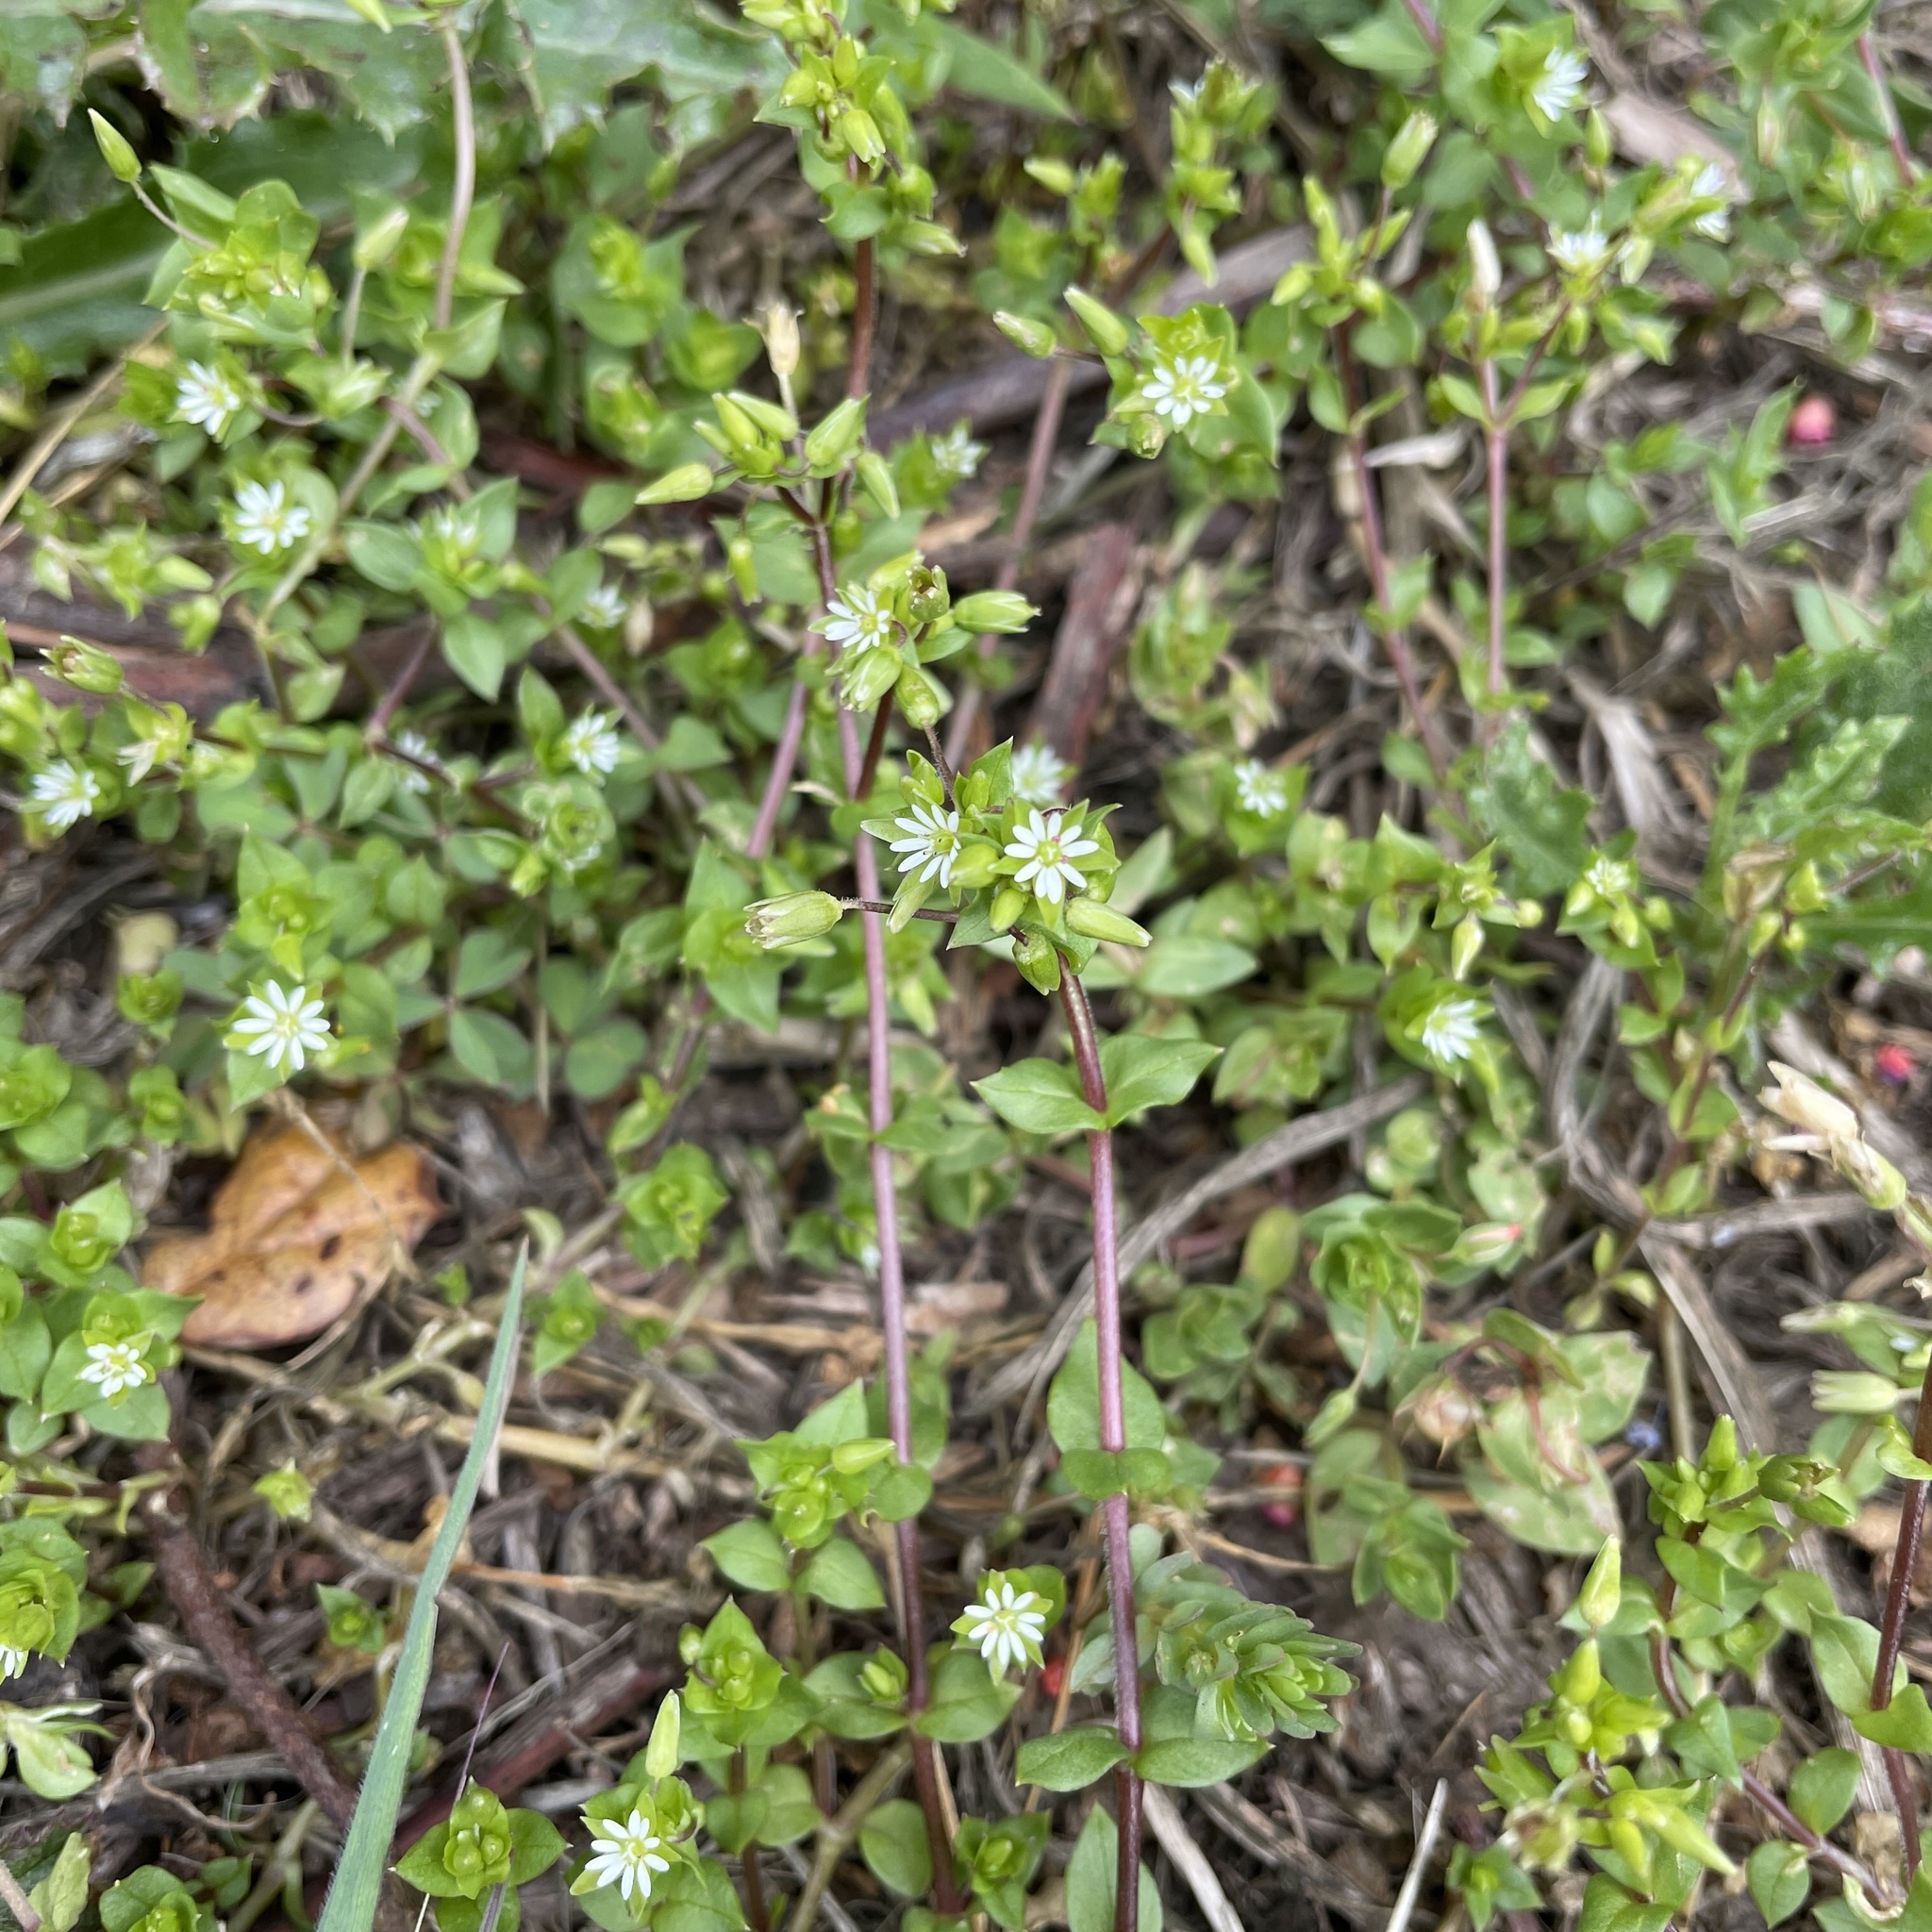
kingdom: Plantae
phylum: Tracheophyta
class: Magnoliopsida
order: Caryophyllales
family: Caryophyllaceae
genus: Stellaria
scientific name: Stellaria media
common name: Common chickweed
